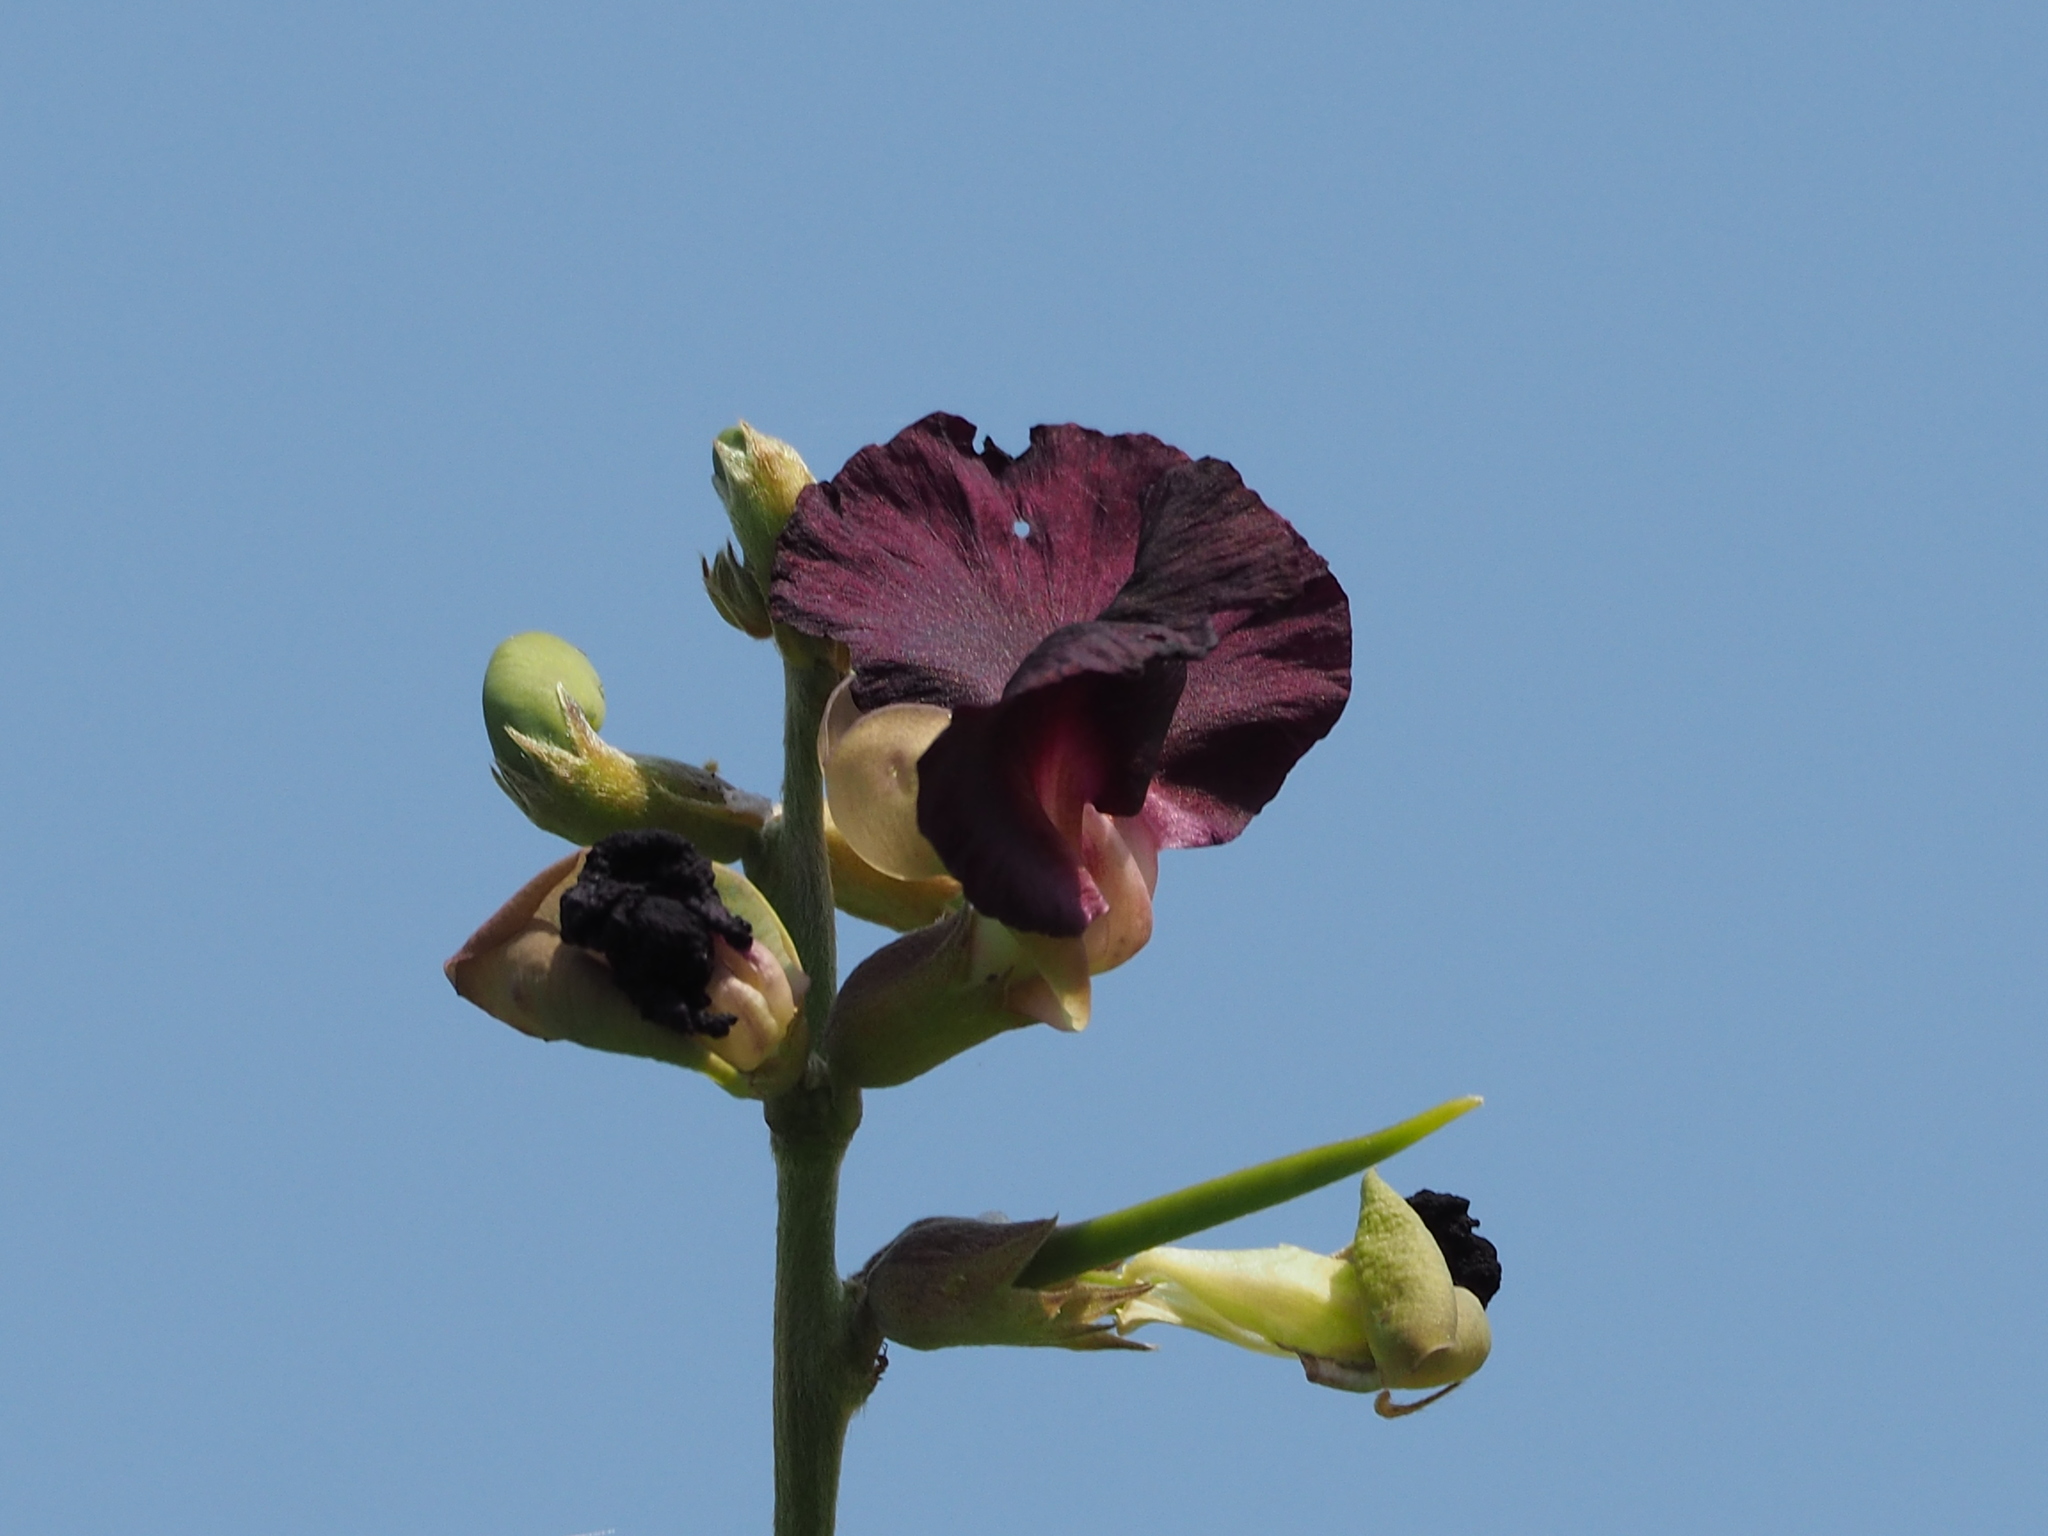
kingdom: Plantae
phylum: Tracheophyta
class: Magnoliopsida
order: Fabales
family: Fabaceae
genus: Macroptilium
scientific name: Macroptilium atropurpureum
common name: Purple bushbean
